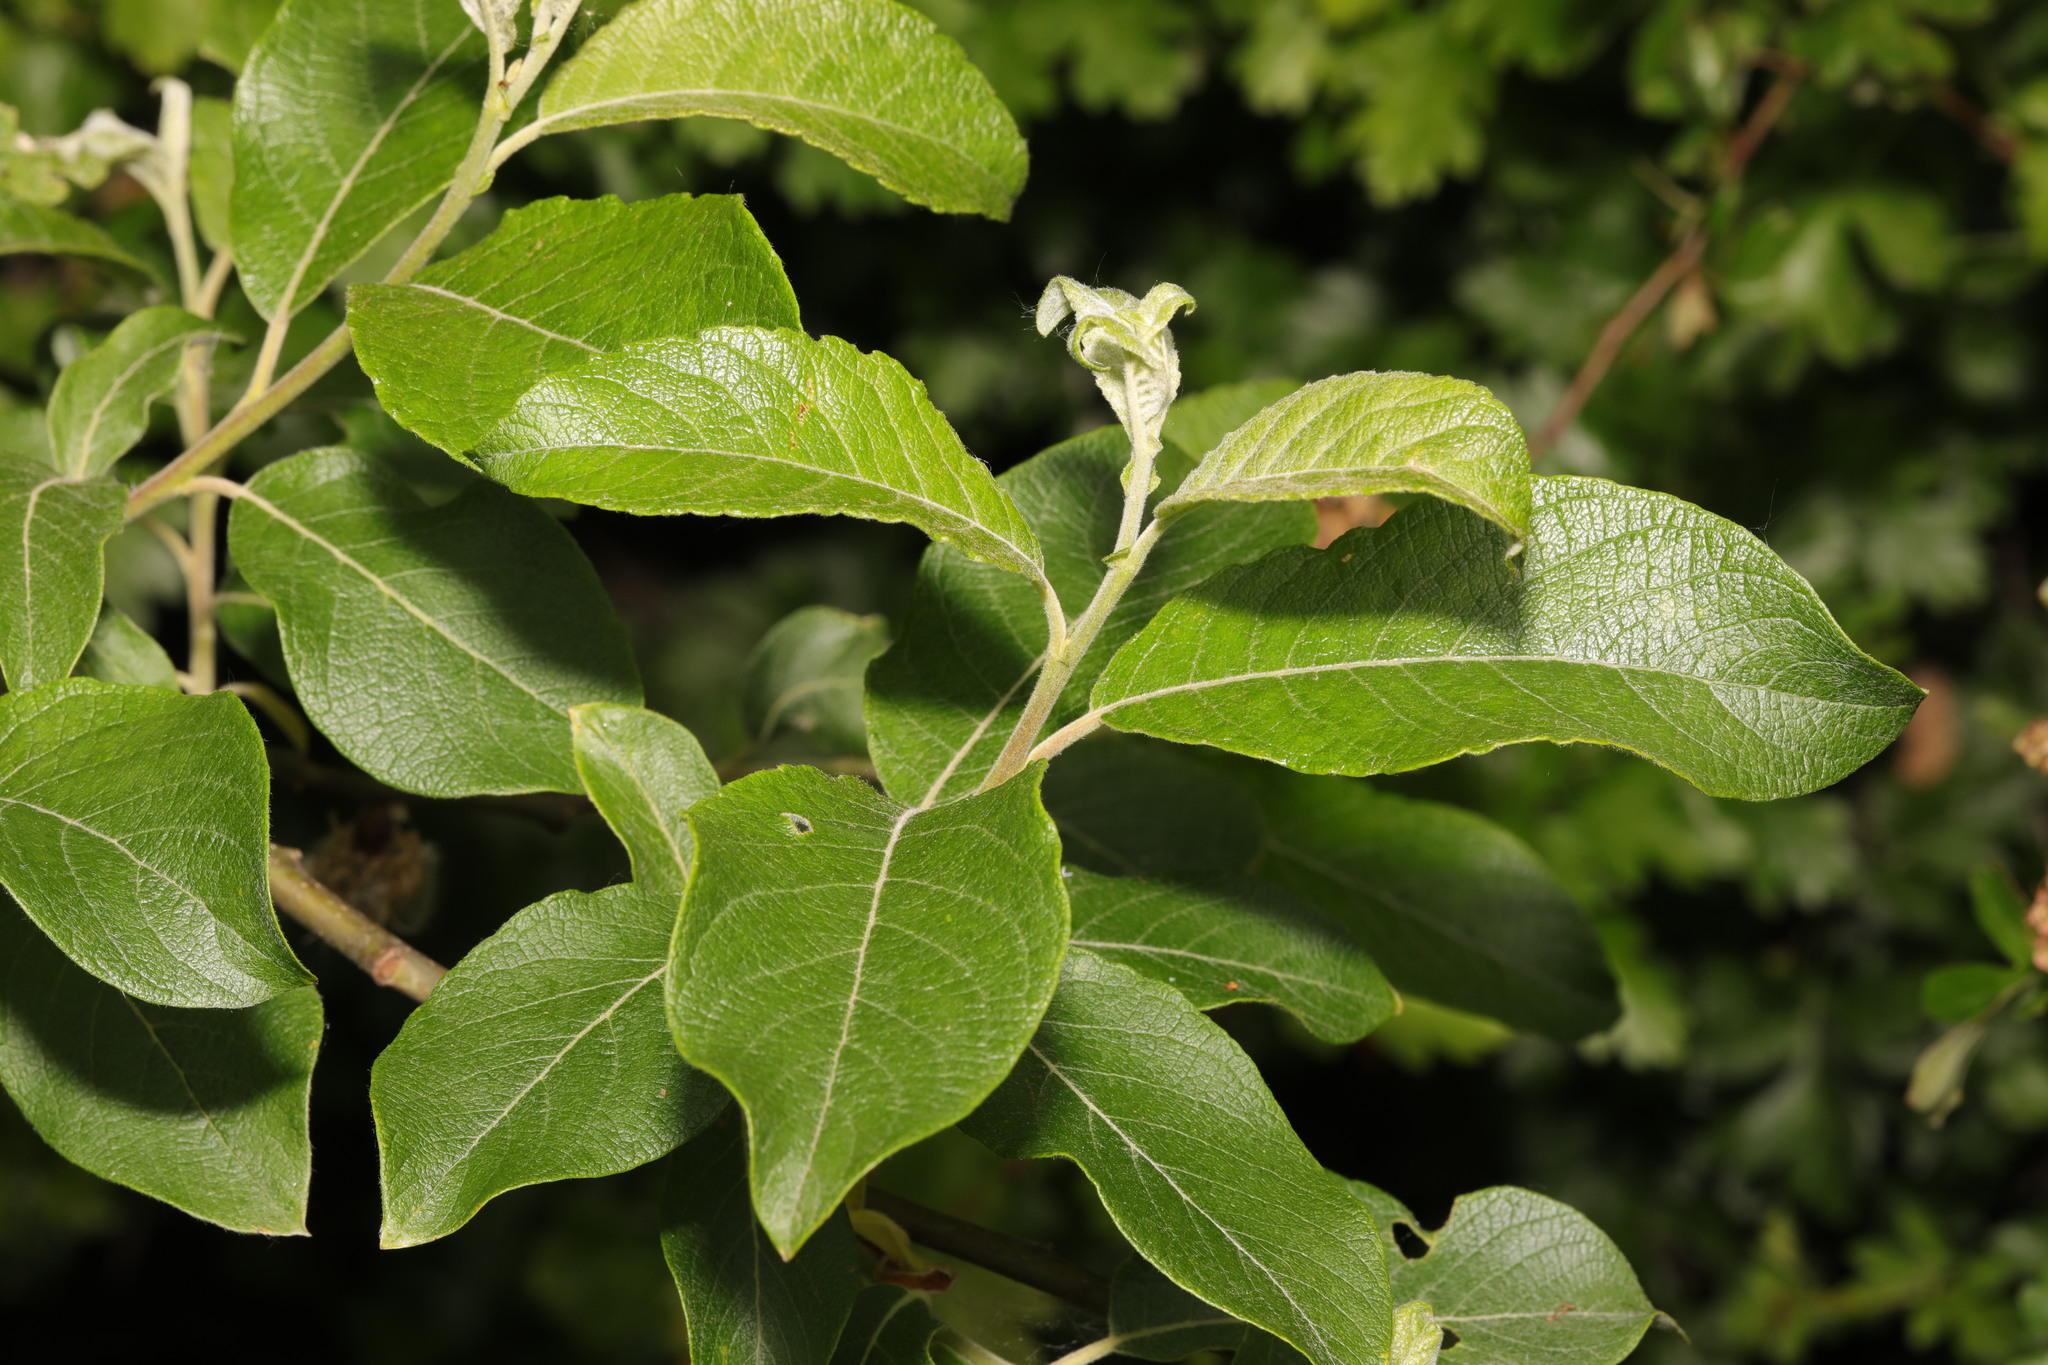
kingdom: Plantae
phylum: Tracheophyta
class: Magnoliopsida
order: Malpighiales
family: Salicaceae
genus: Salix
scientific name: Salix caprea
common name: Goat willow
